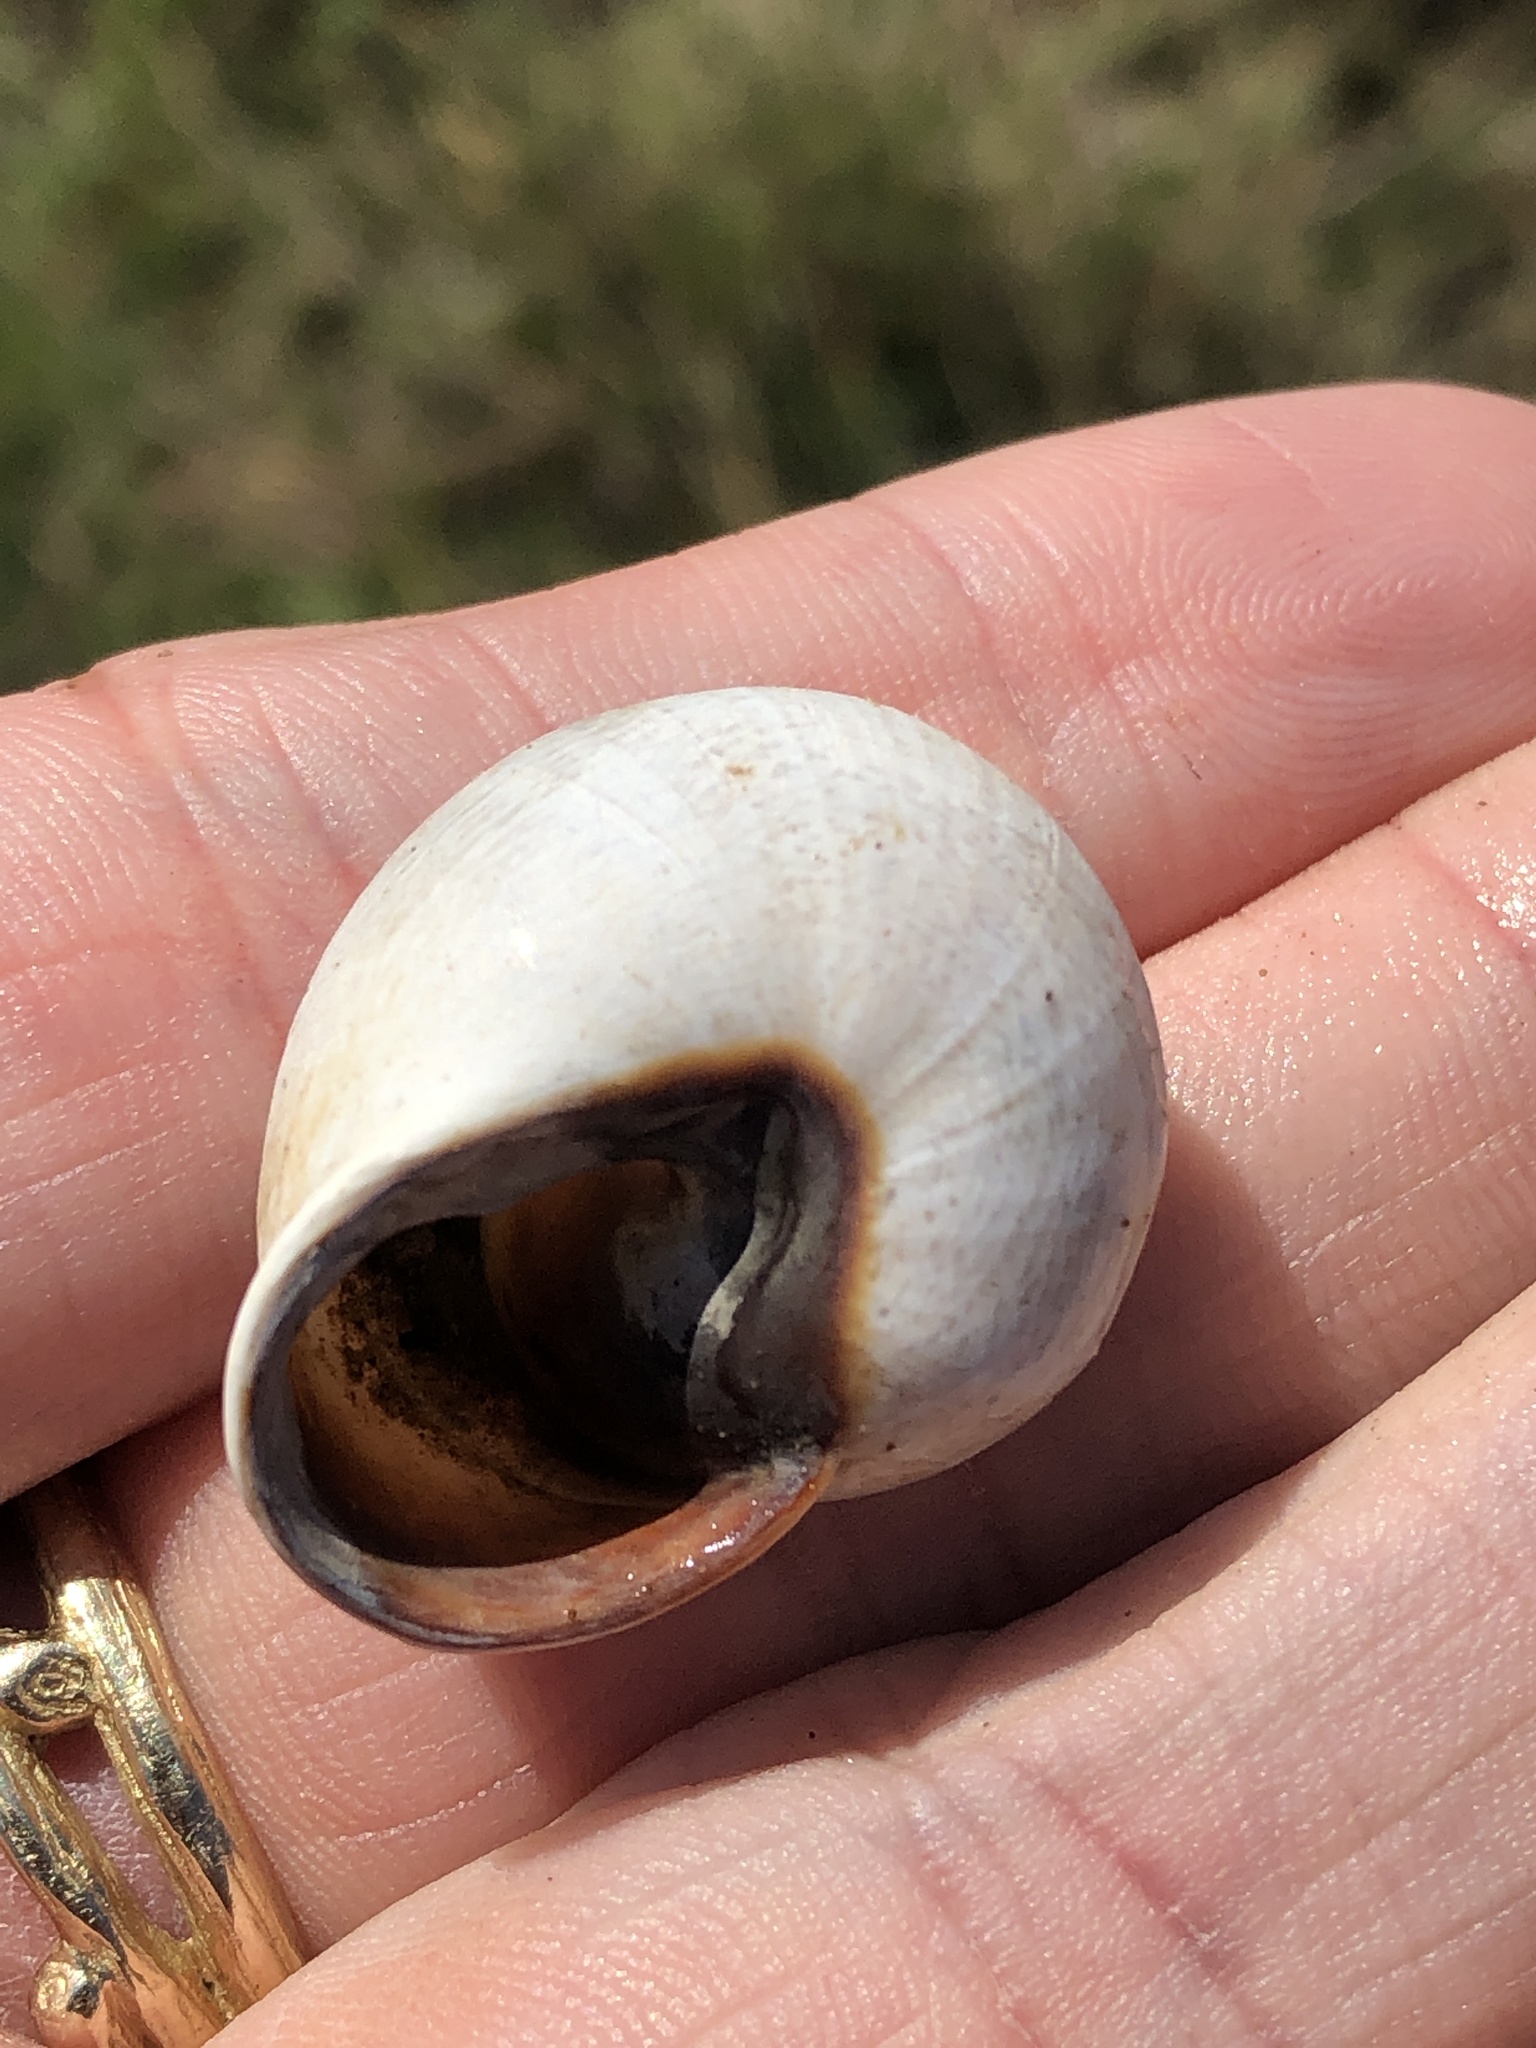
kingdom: Animalia
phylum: Mollusca
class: Gastropoda
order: Stylommatophora
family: Helicidae
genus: Otala
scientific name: Otala lactea
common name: Milk snail
